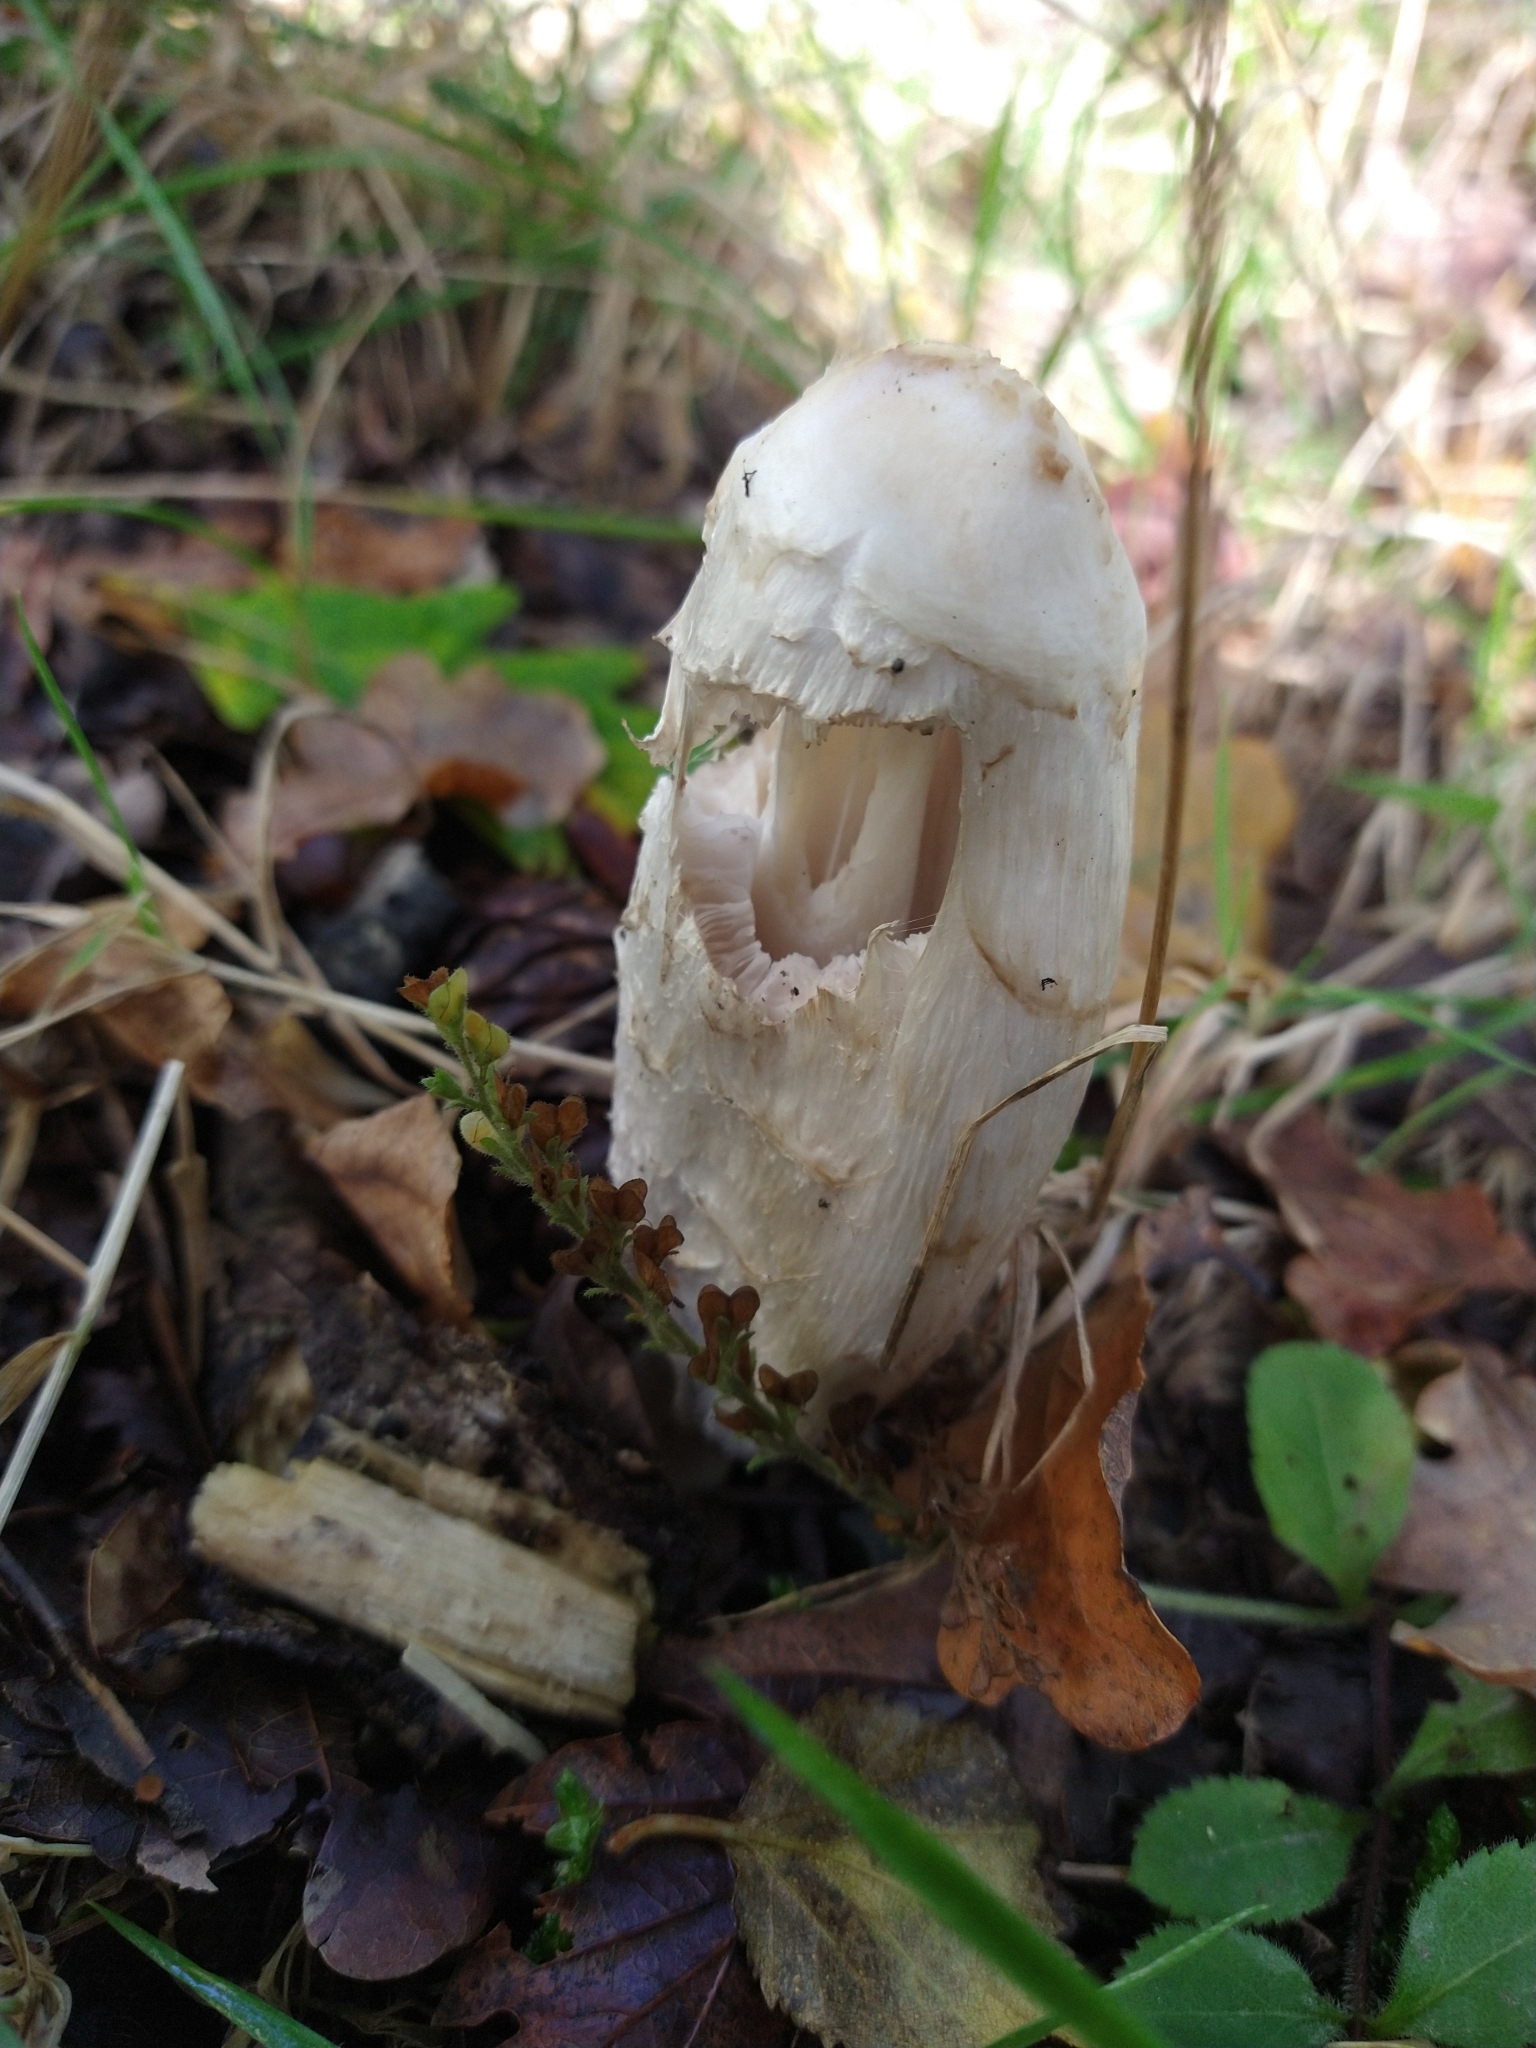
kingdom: Fungi
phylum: Basidiomycota
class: Agaricomycetes
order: Agaricales
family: Agaricaceae
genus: Coprinus
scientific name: Coprinus comatus
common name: Lawyer's wig
